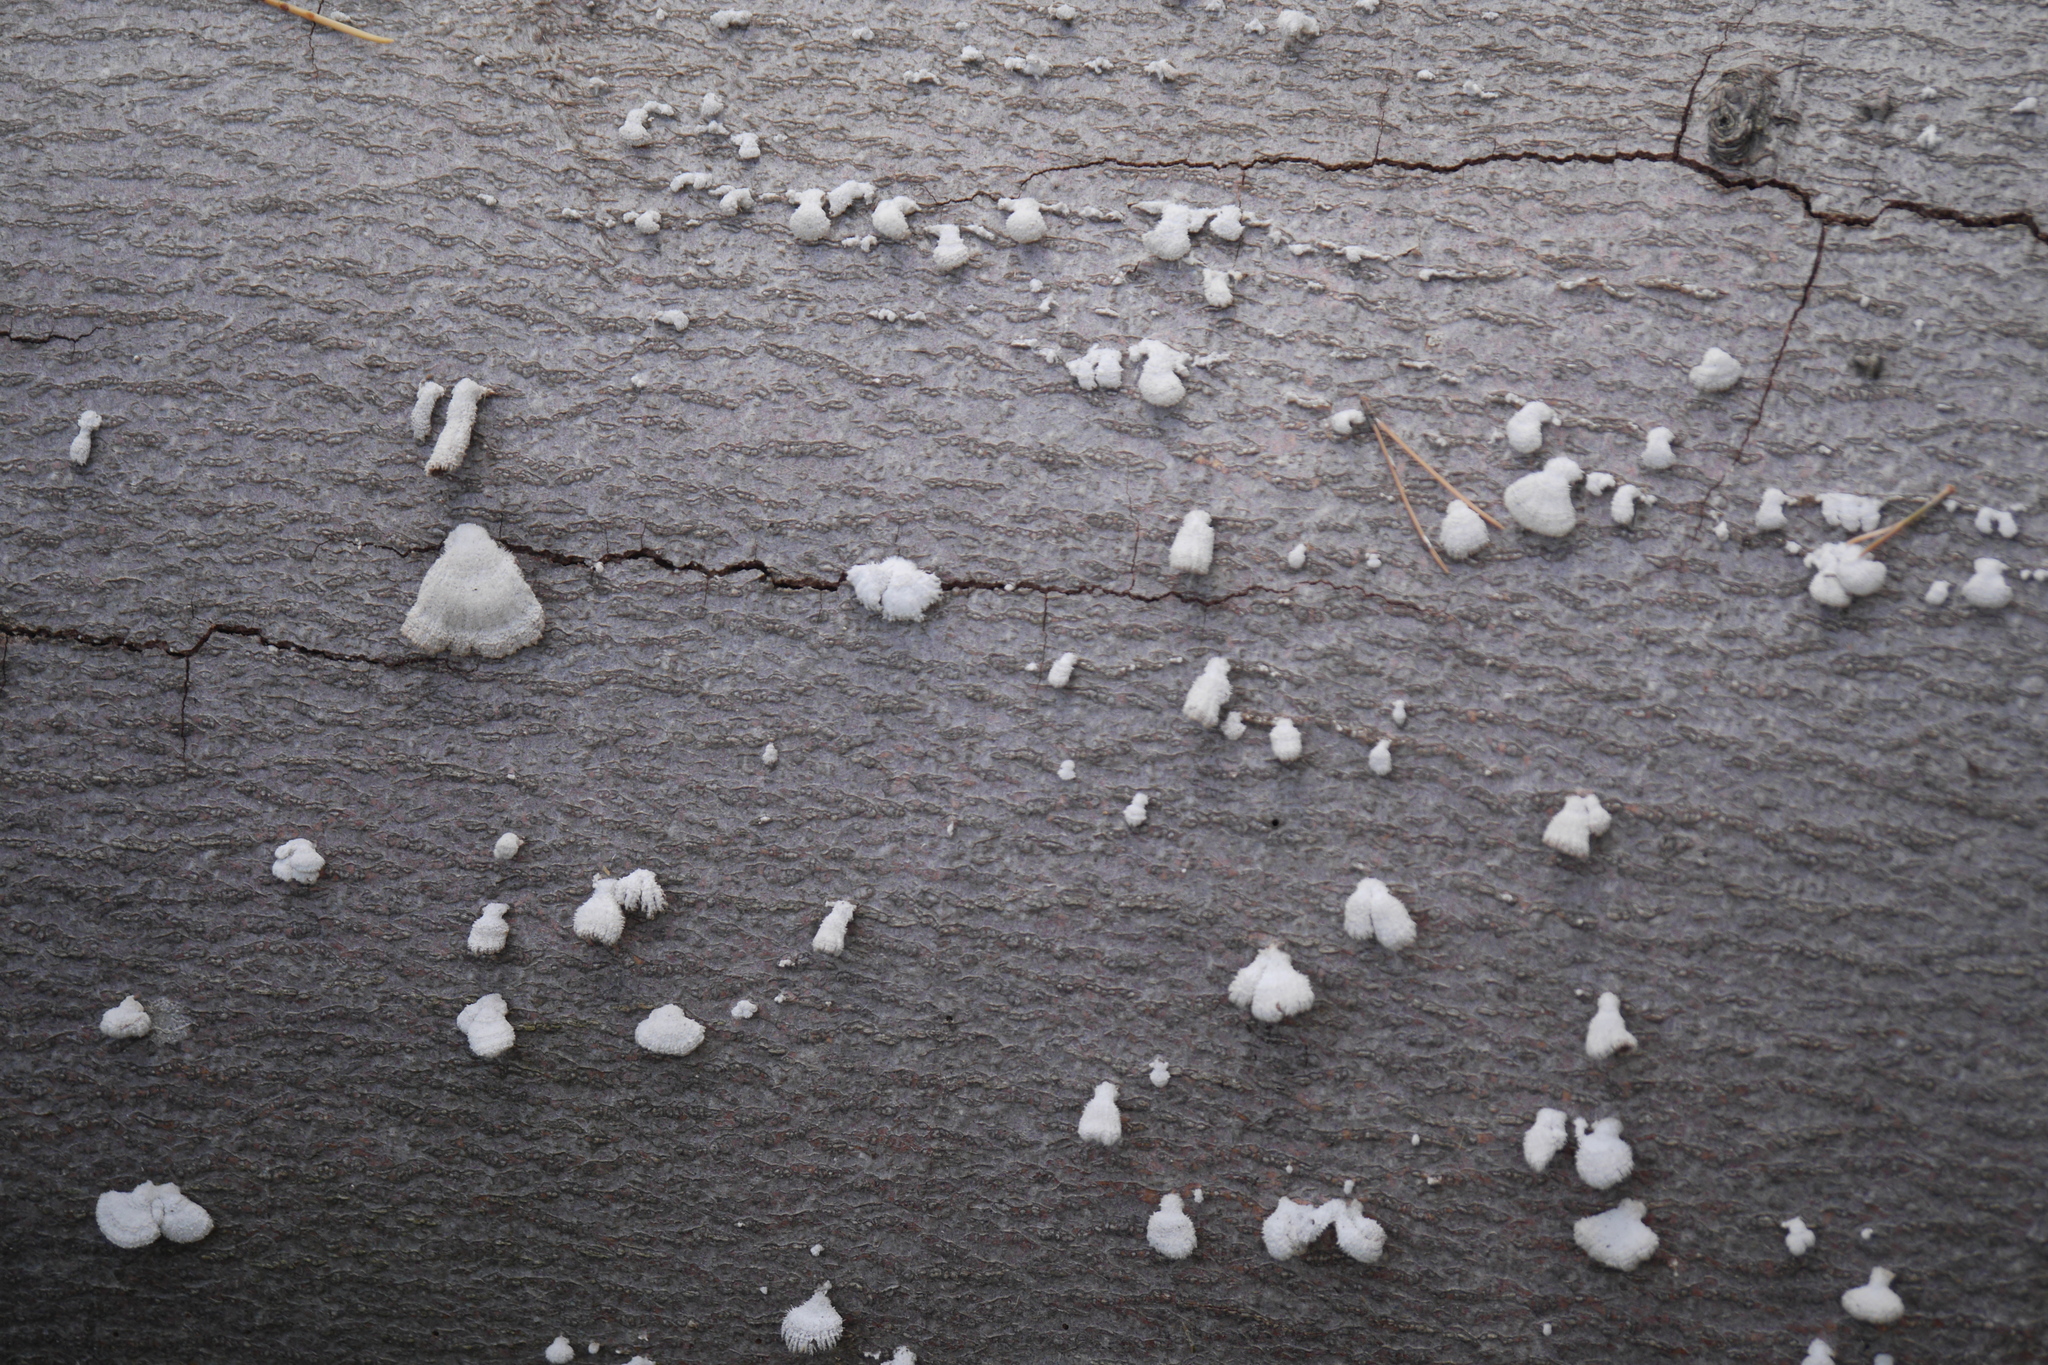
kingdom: Fungi
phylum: Basidiomycota
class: Agaricomycetes
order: Agaricales
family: Schizophyllaceae
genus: Schizophyllum
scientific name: Schizophyllum commune
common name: Common porecrust
